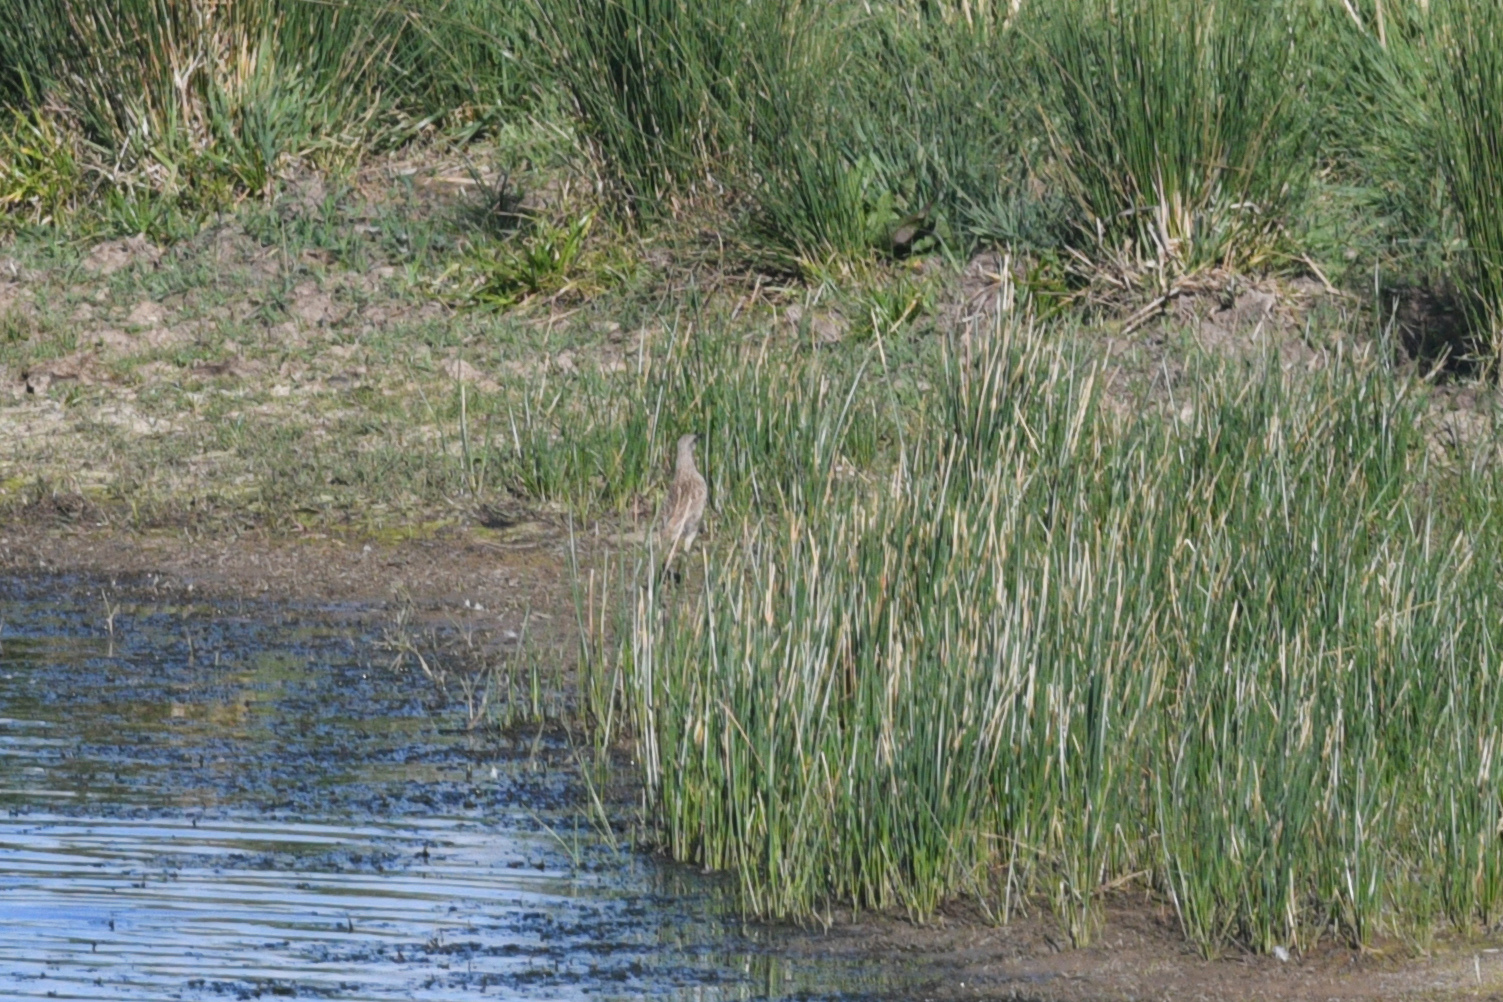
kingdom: Animalia
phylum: Chordata
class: Aves
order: Passeriformes
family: Locustellidae
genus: Megalurus
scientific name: Megalurus cruralis
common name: Brown songlark
